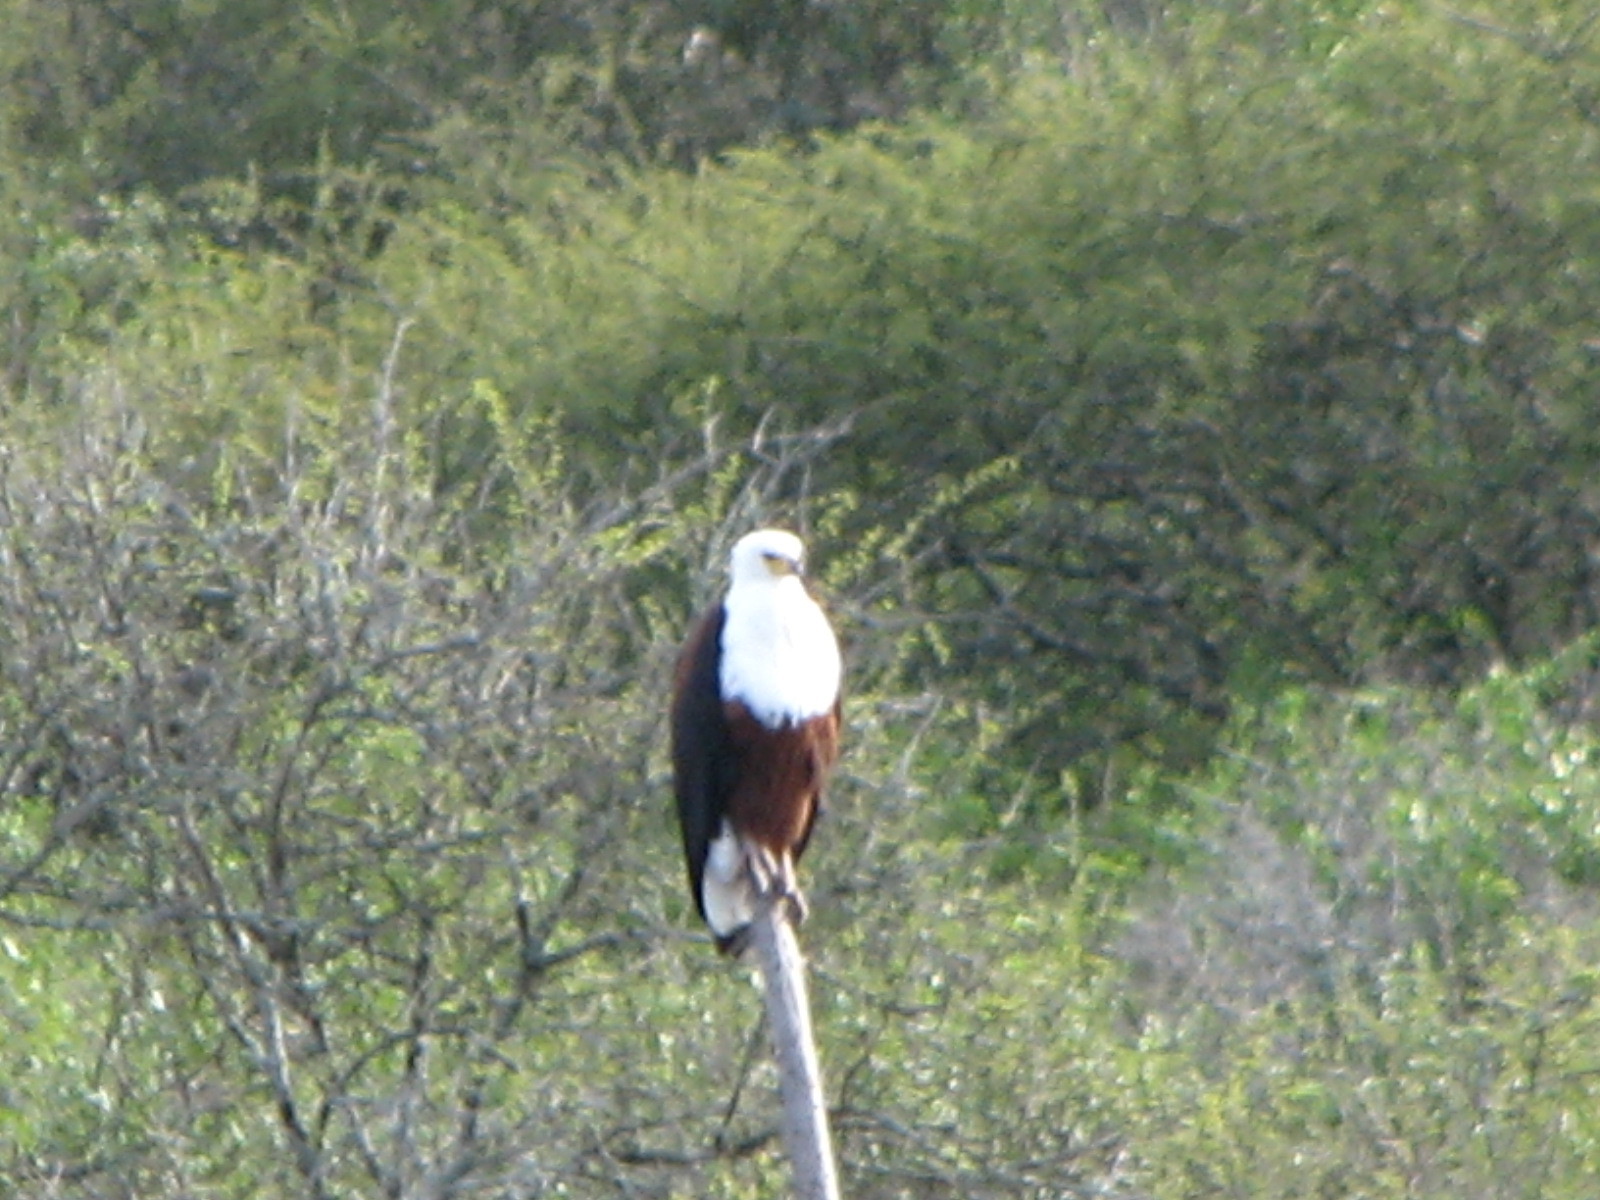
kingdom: Animalia
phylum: Chordata
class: Aves
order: Accipitriformes
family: Accipitridae
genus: Haliaeetus
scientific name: Haliaeetus vocifer
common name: African fish eagle
